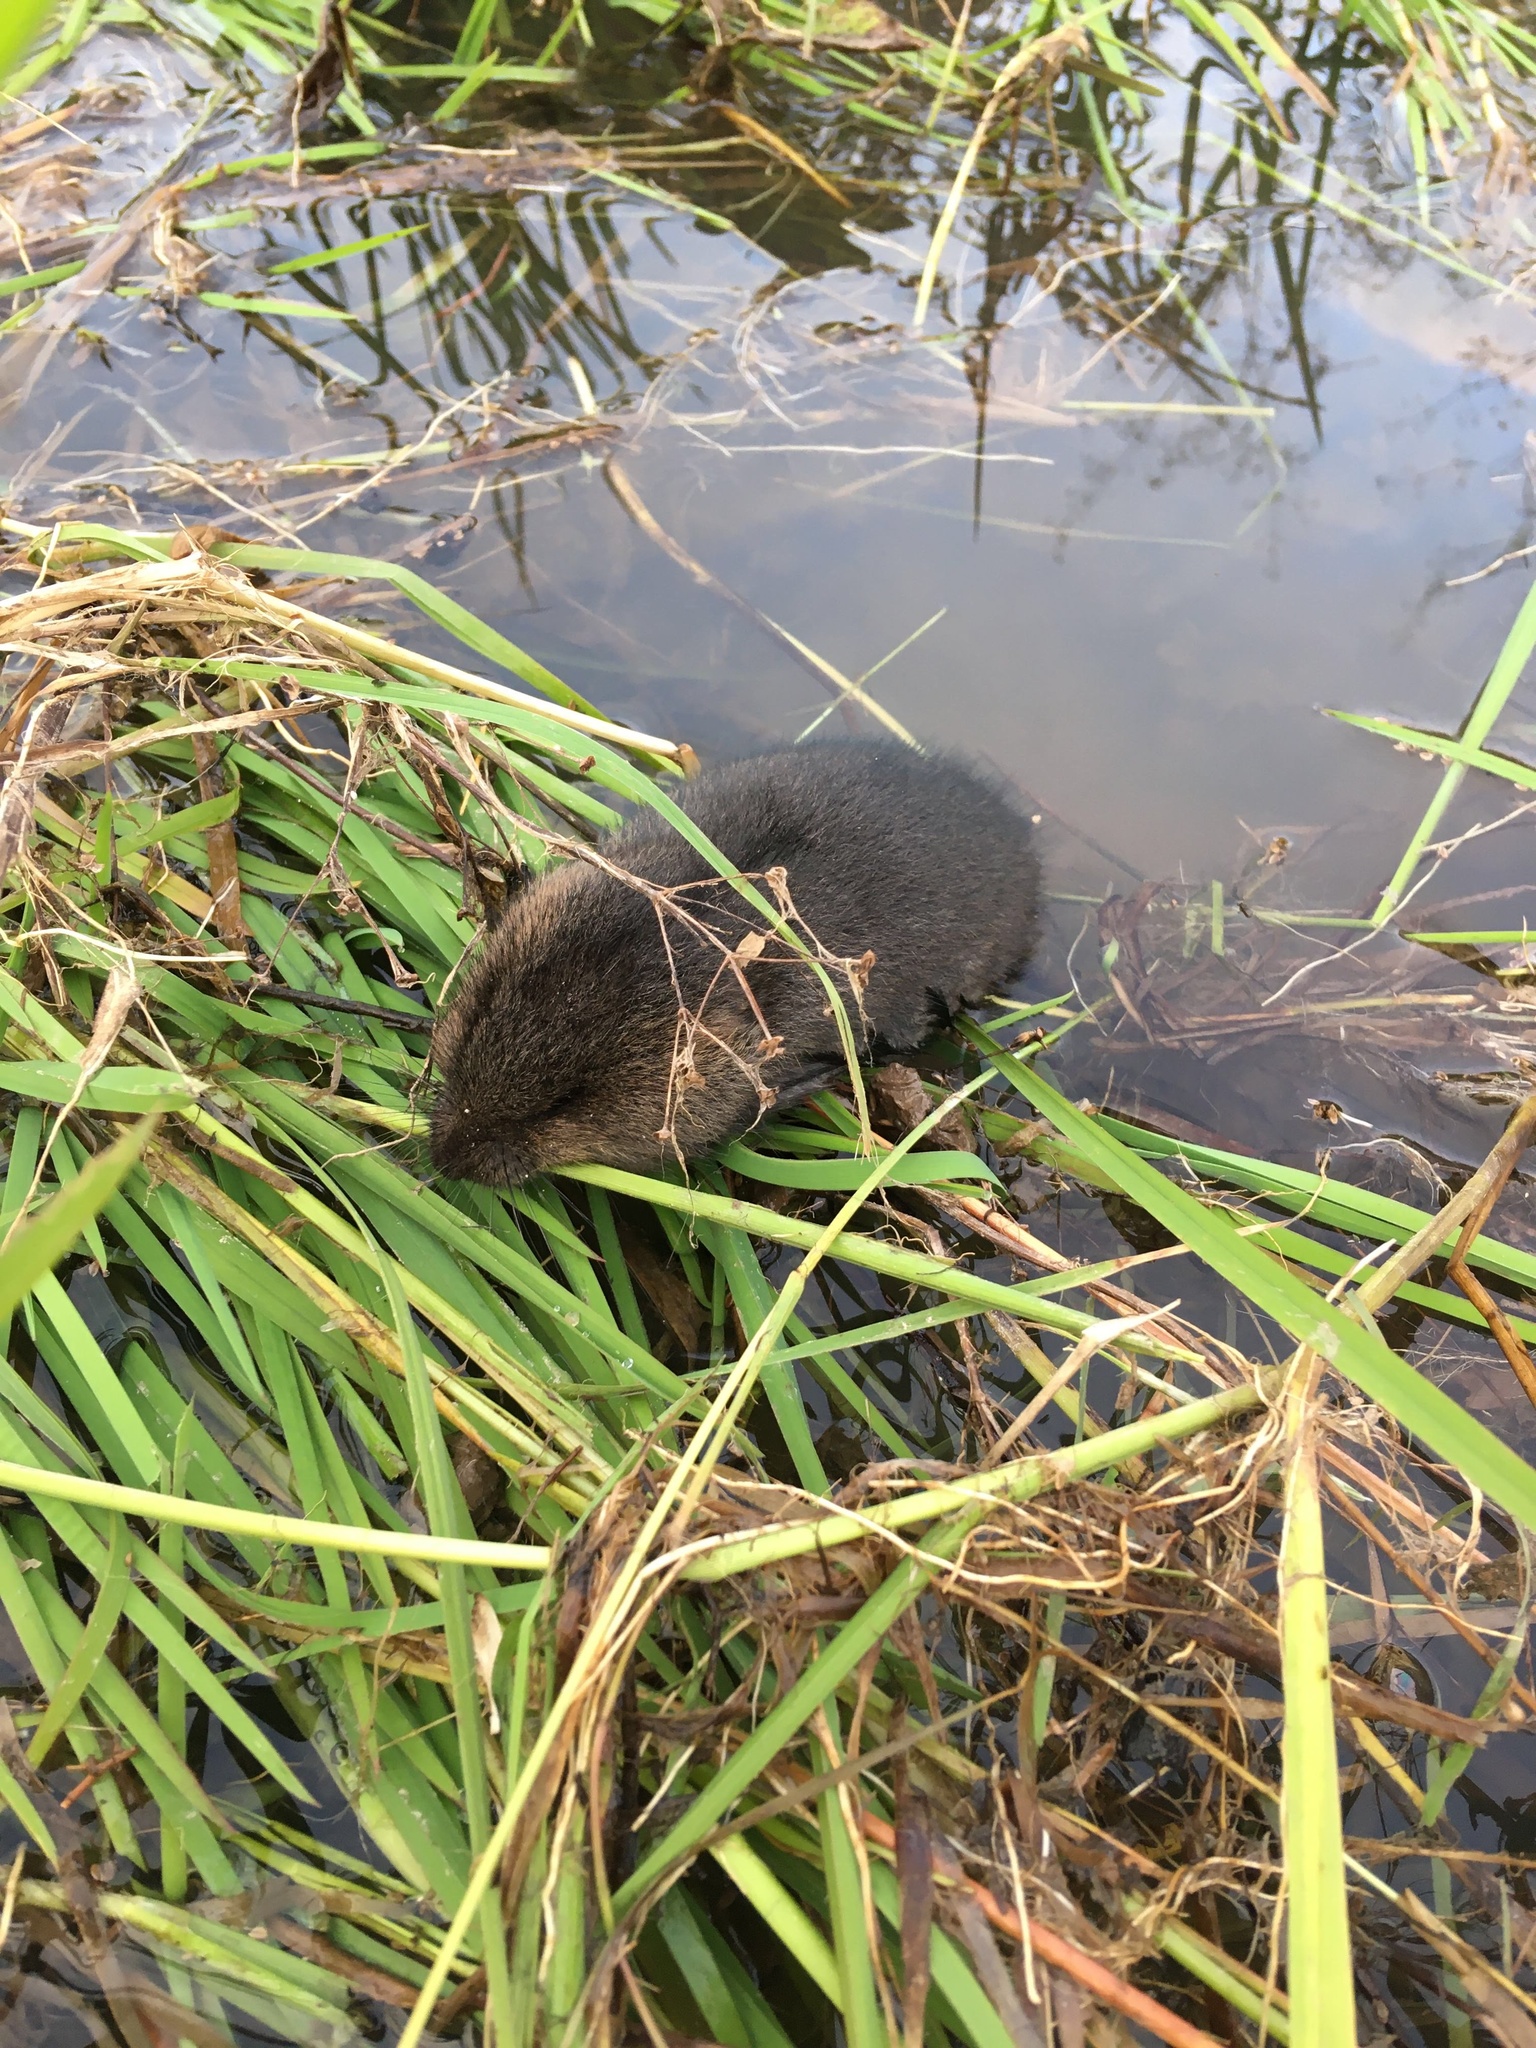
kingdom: Animalia
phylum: Chordata
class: Mammalia
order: Rodentia
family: Cricetidae
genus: Arvicola
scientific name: Arvicola amphibius
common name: European water vole
